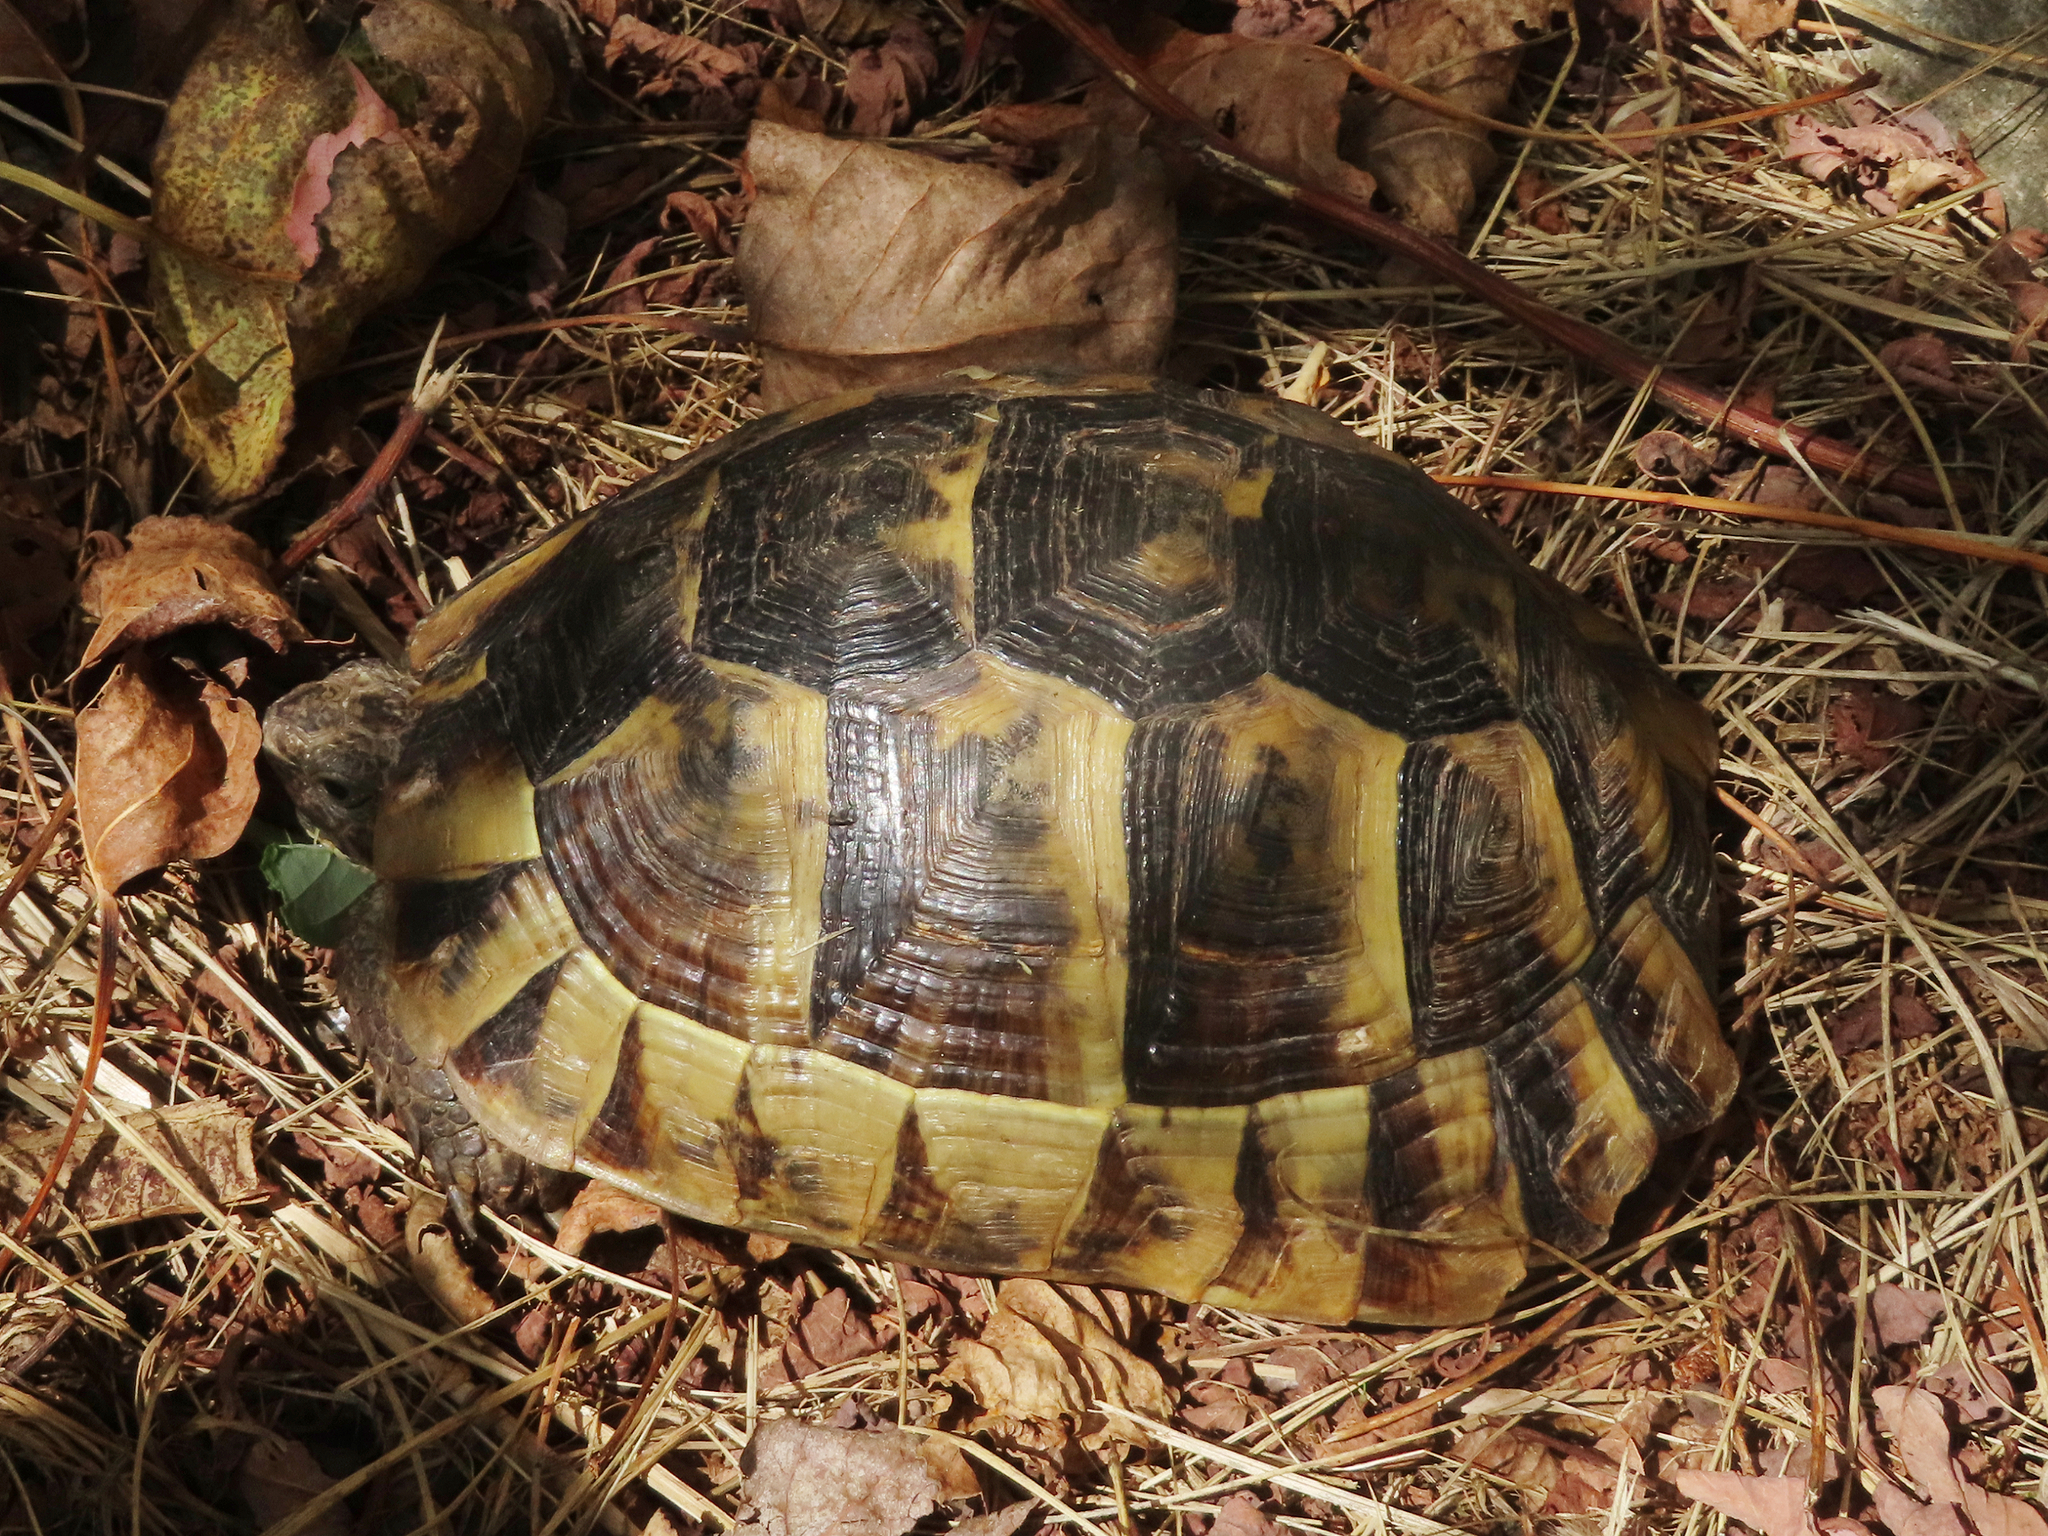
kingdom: Animalia
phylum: Chordata
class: Testudines
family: Testudinidae
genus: Testudo
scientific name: Testudo graeca
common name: Common tortoise
